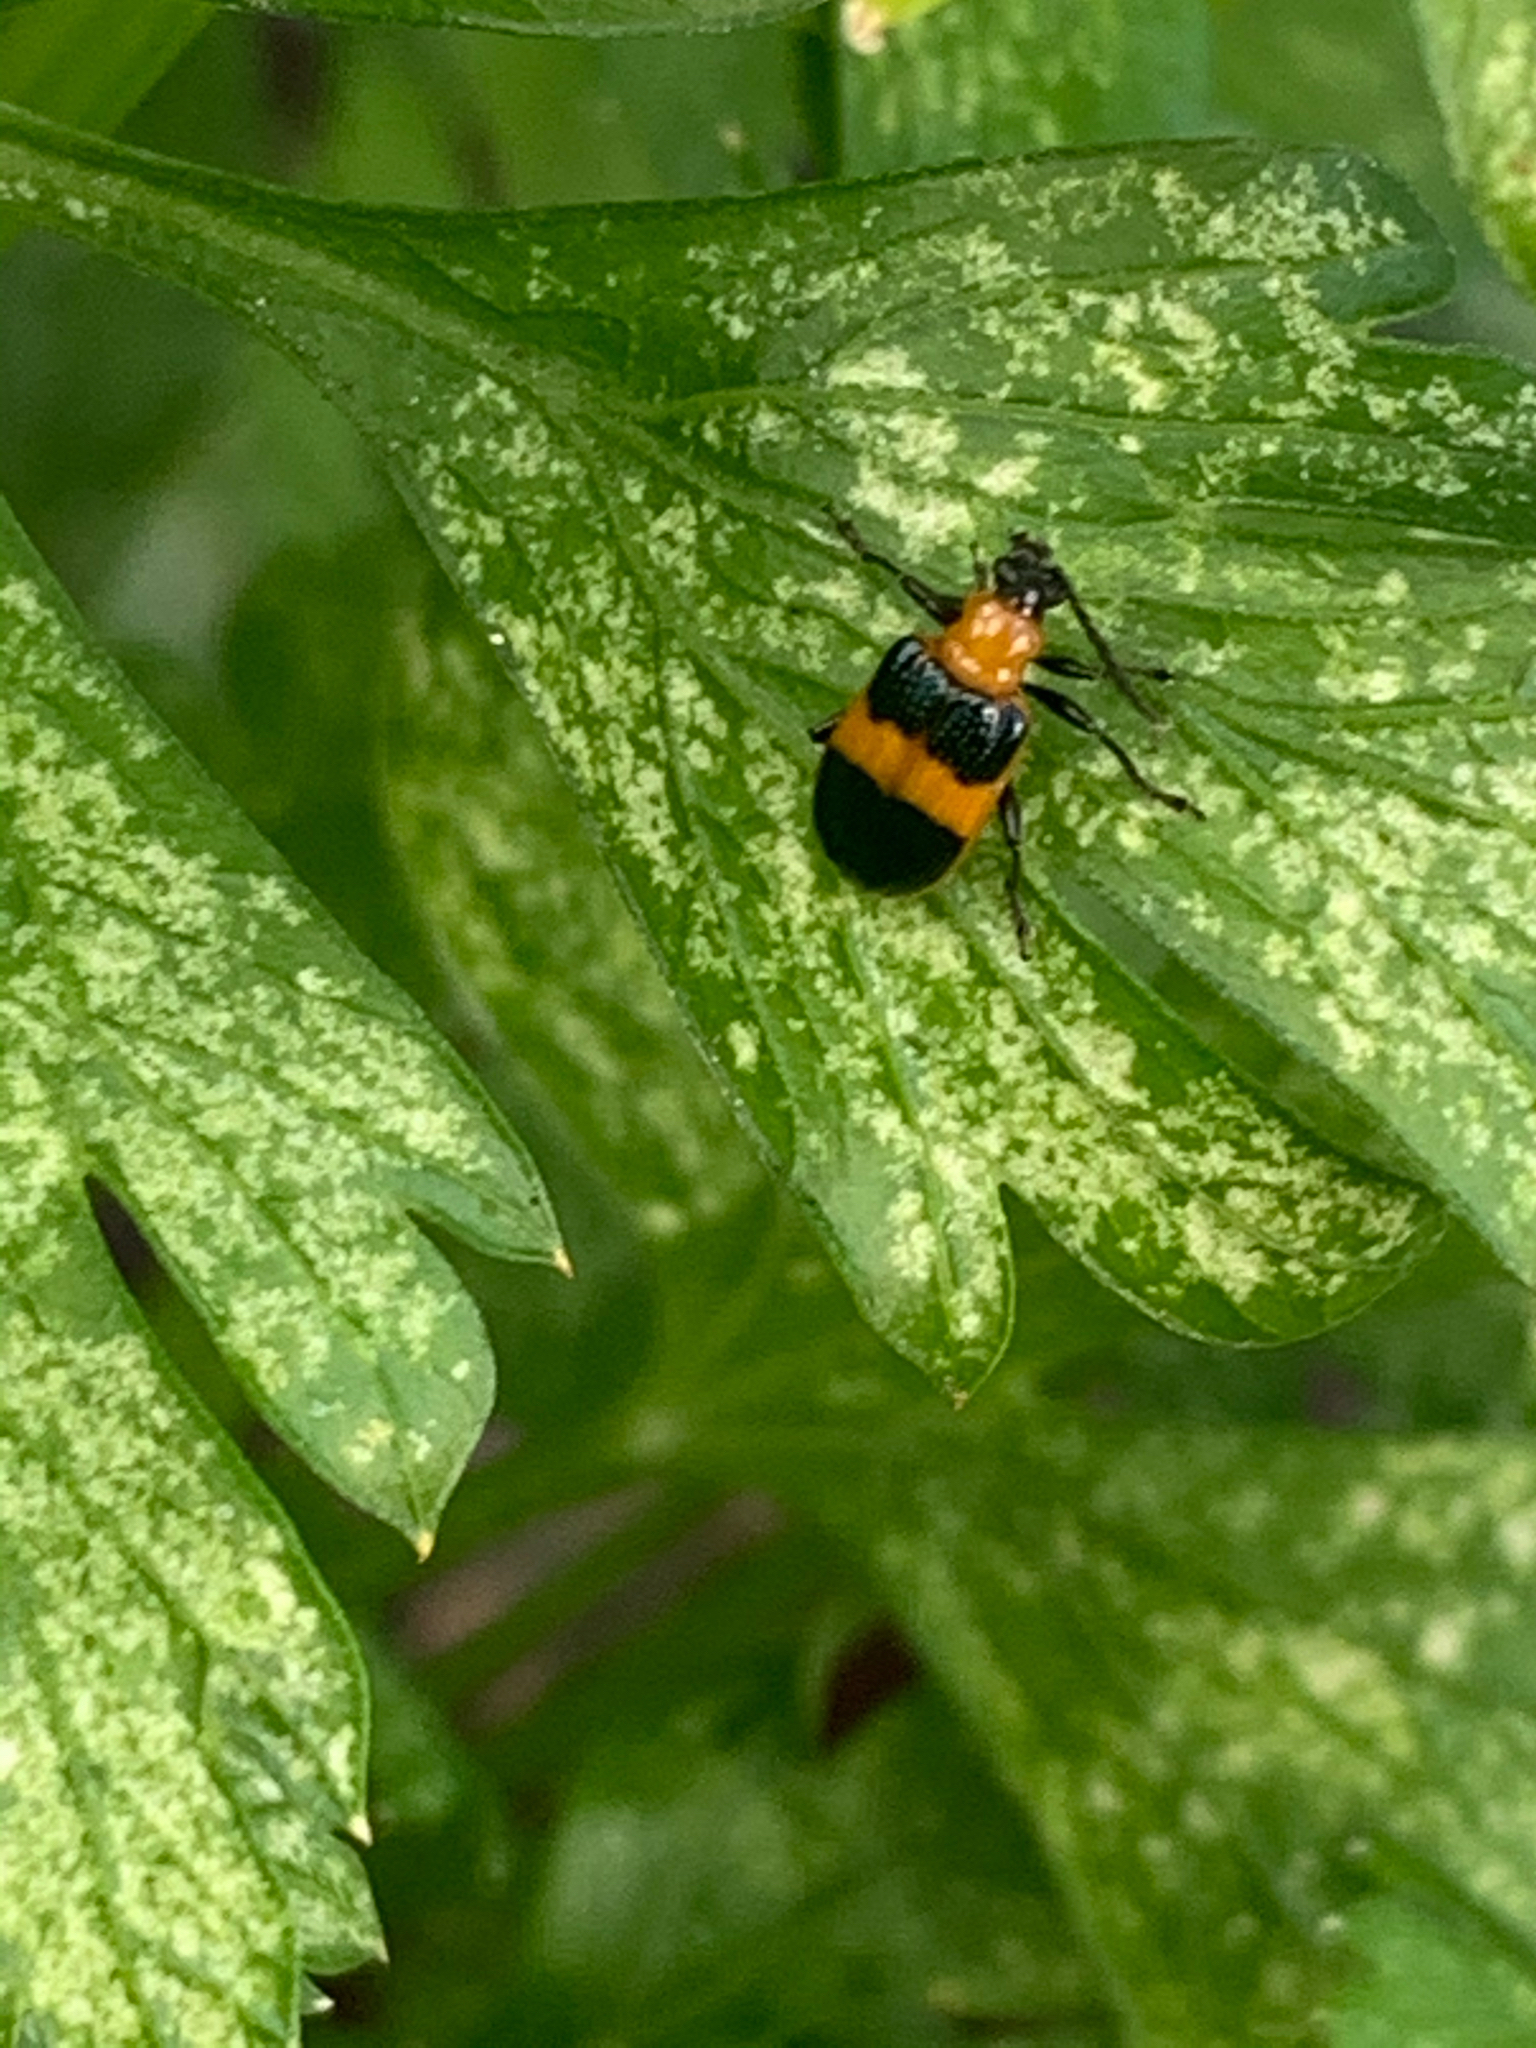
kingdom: Animalia
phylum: Arthropoda
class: Insecta
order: Coleoptera
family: Chrysomelidae
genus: Lema
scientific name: Lema solani
